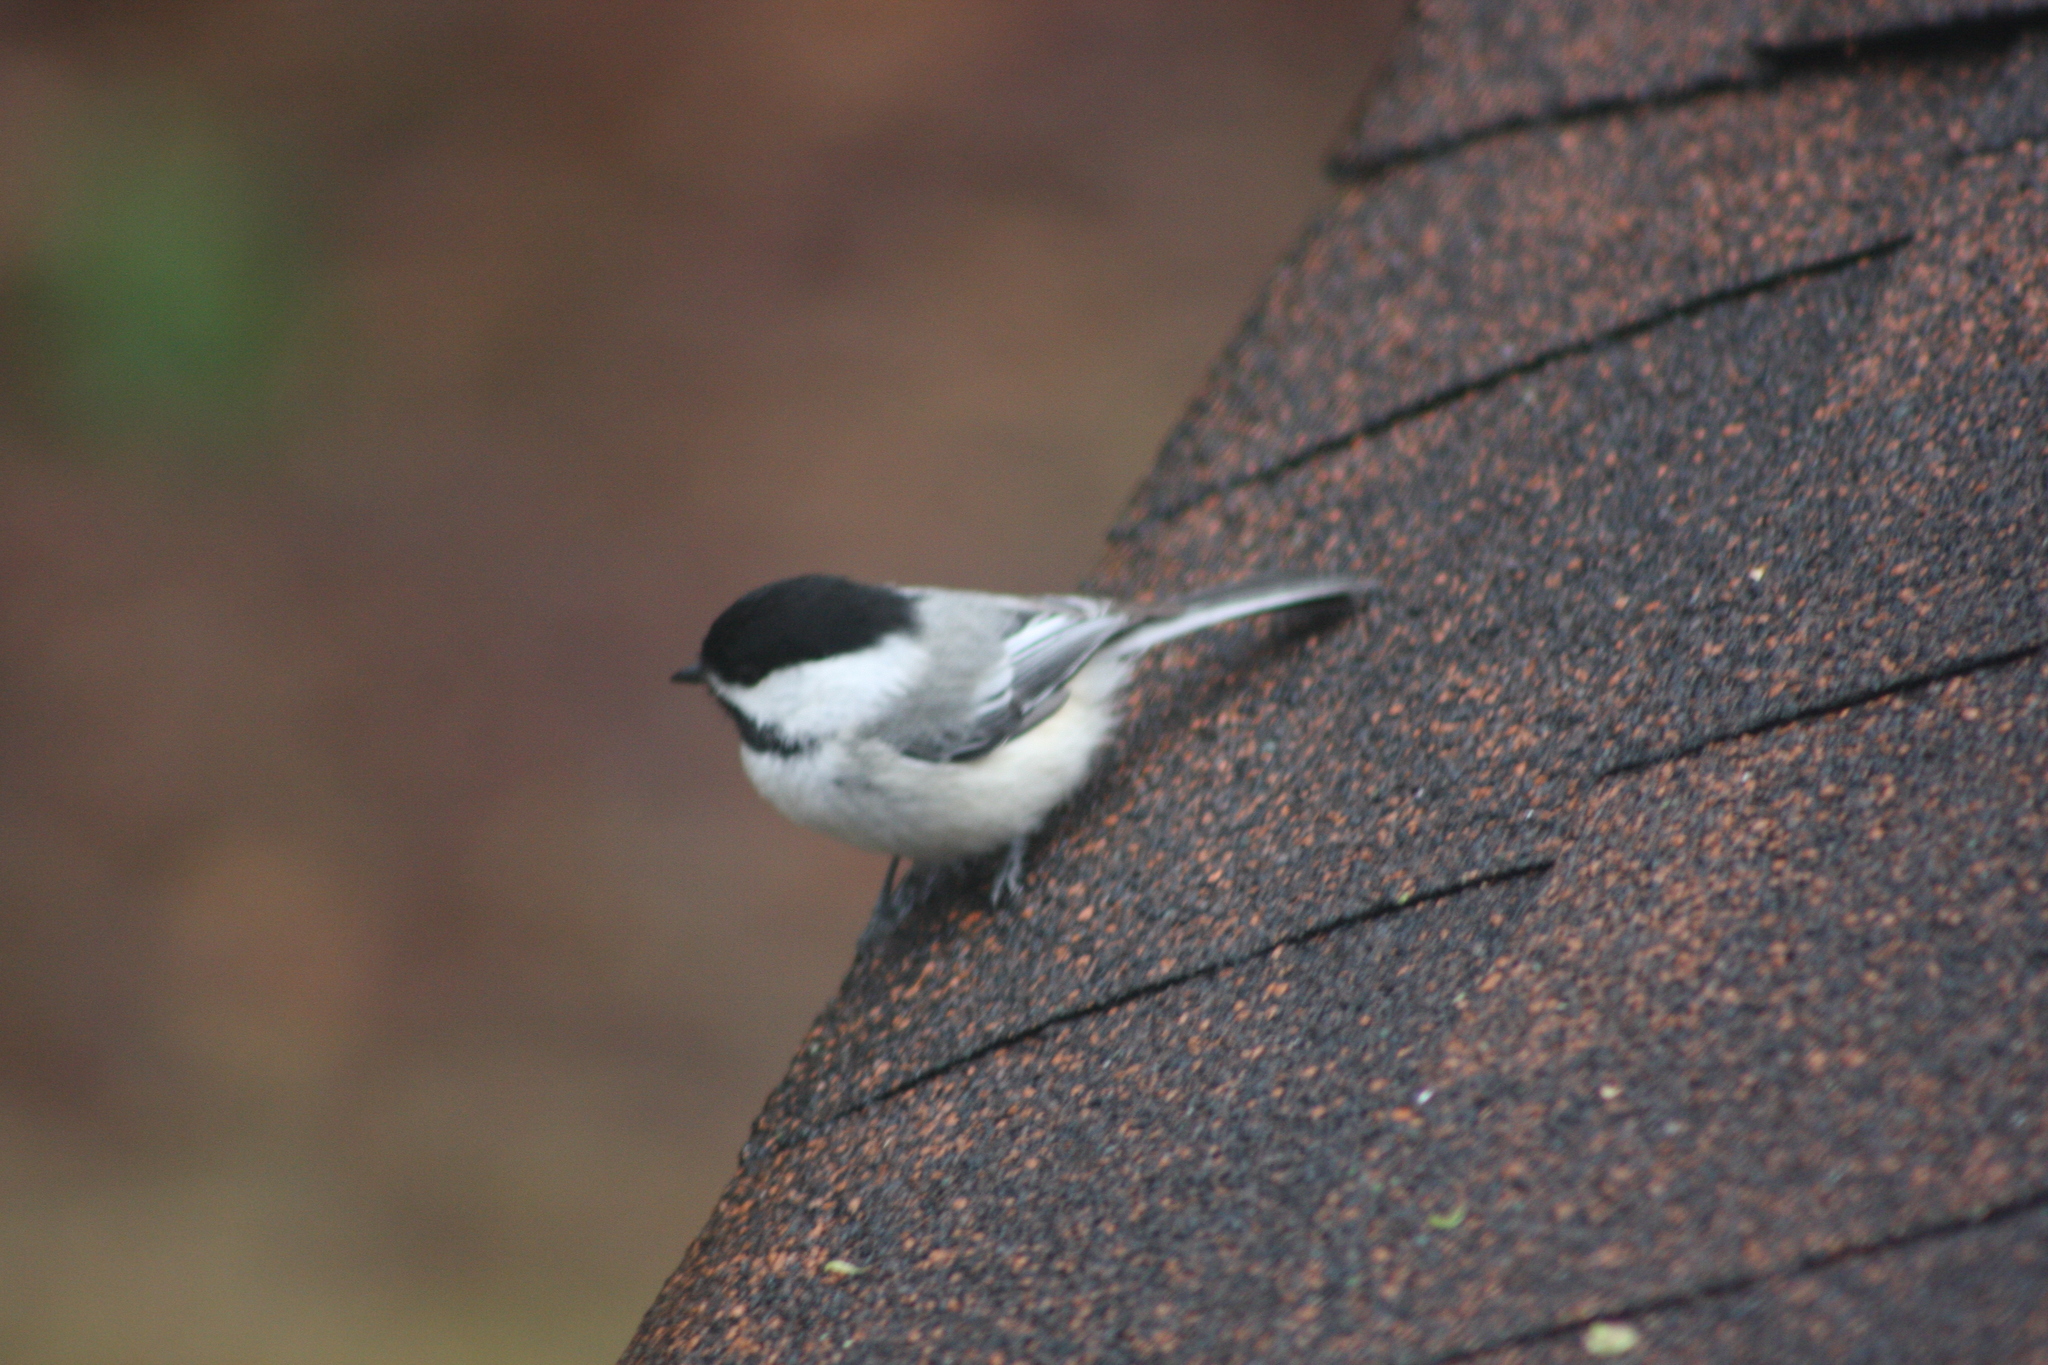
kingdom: Animalia
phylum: Chordata
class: Aves
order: Passeriformes
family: Paridae
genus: Poecile
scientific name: Poecile atricapillus
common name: Black-capped chickadee
